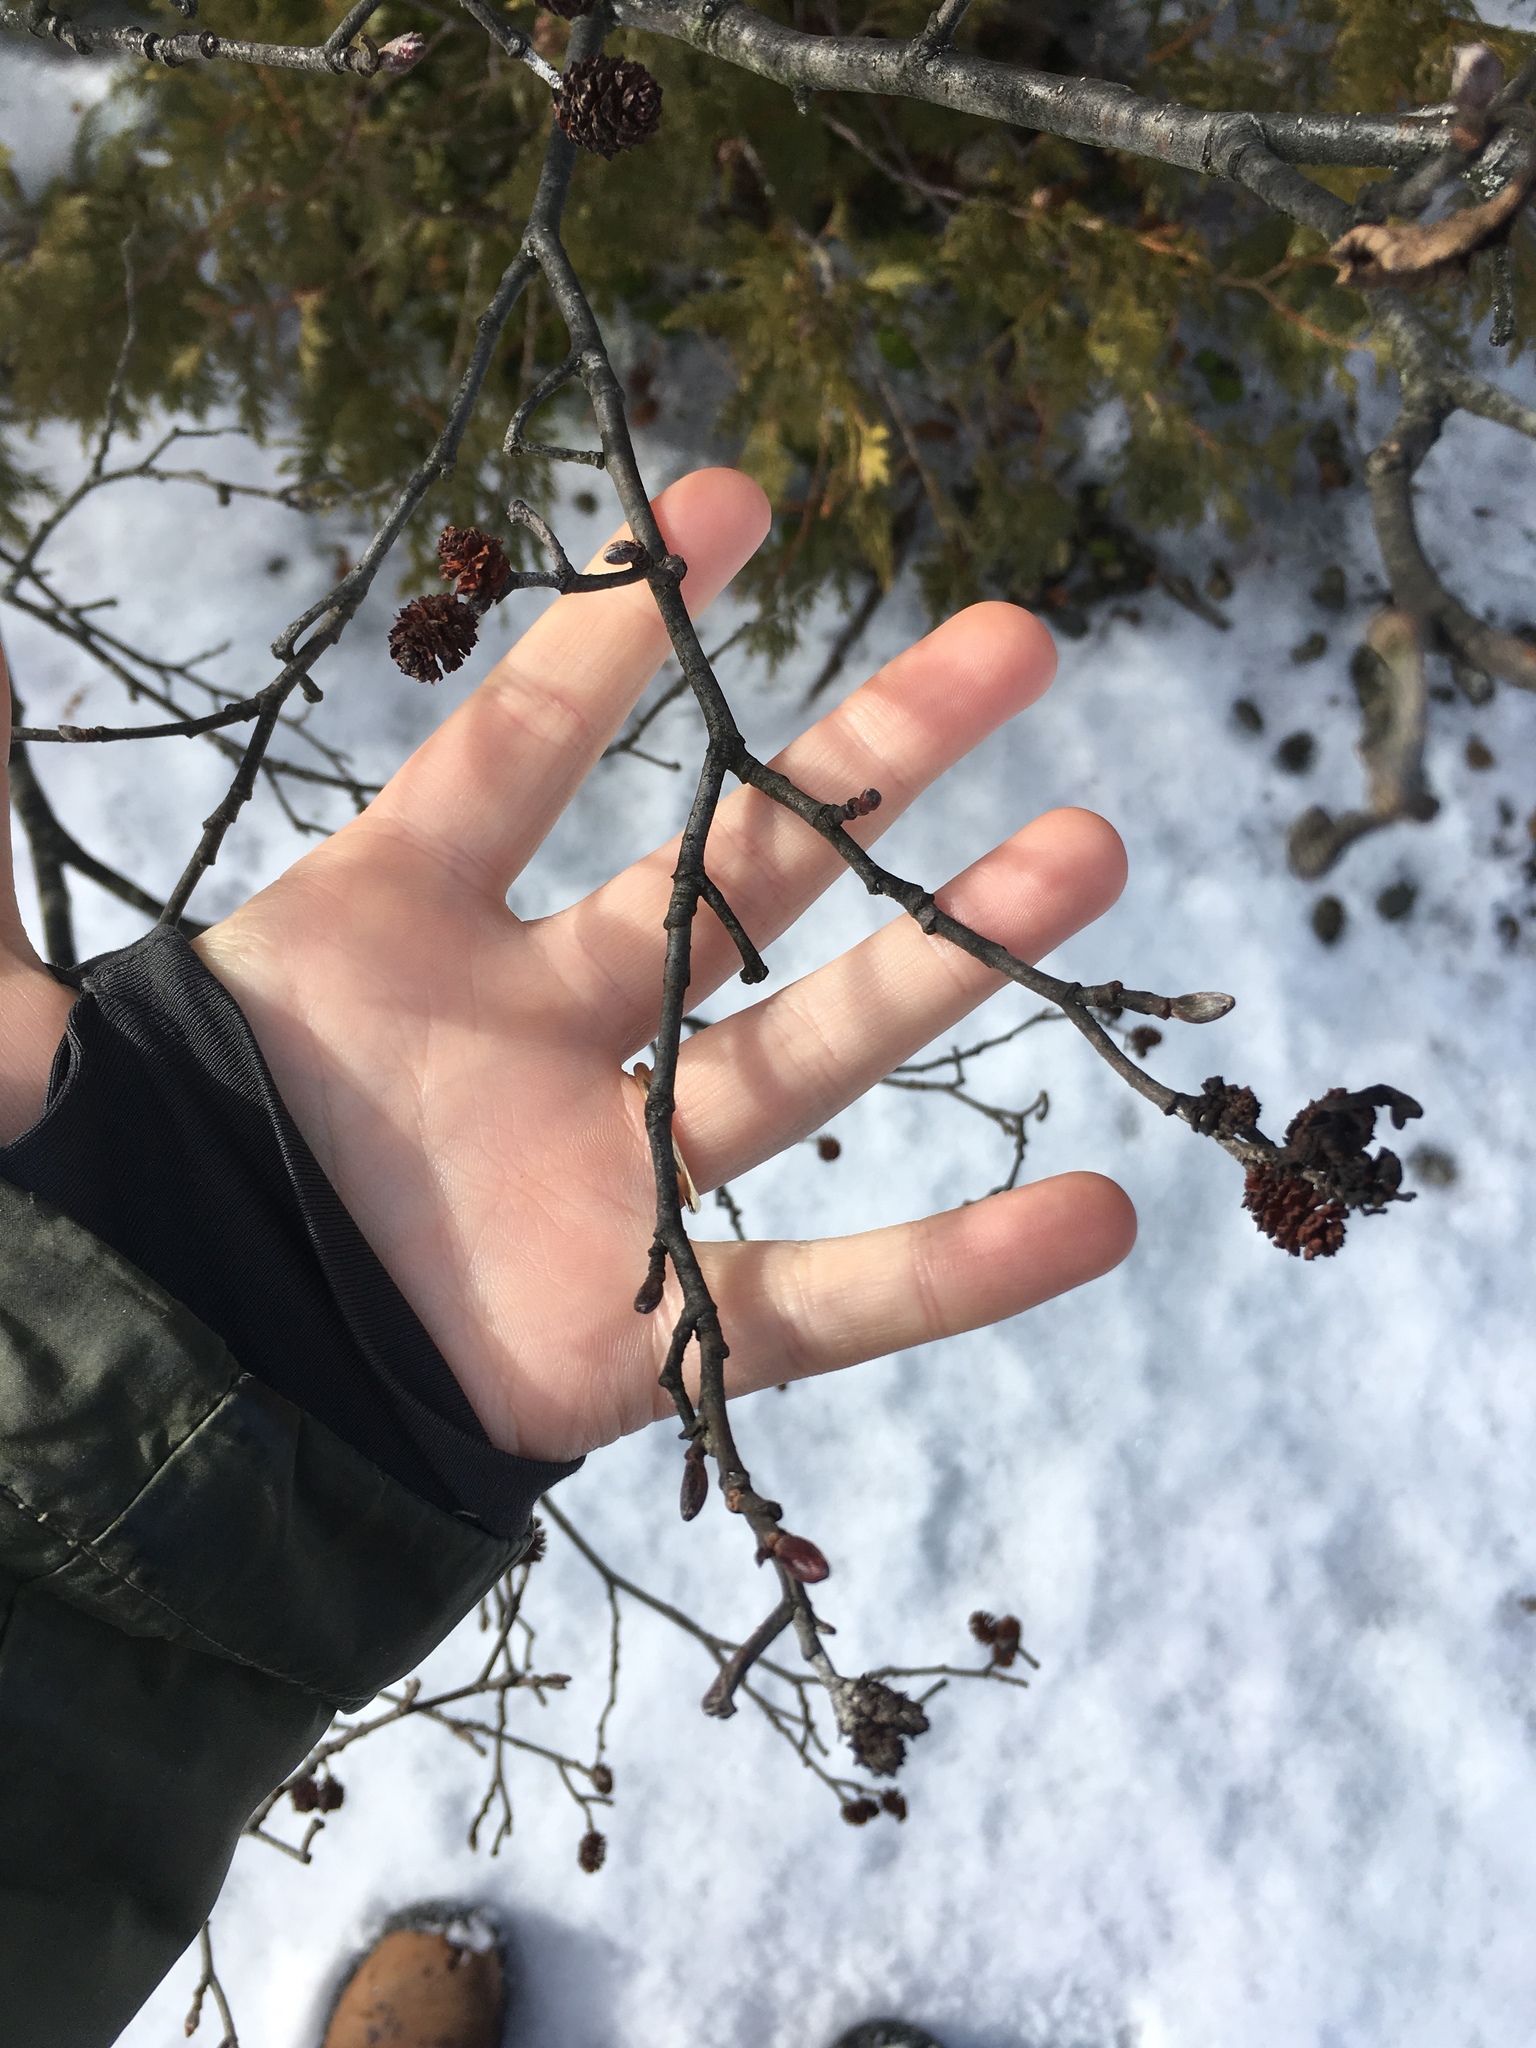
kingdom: Plantae
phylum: Tracheophyta
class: Magnoliopsida
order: Fagales
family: Betulaceae
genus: Alnus
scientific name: Alnus incana
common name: Grey alder
